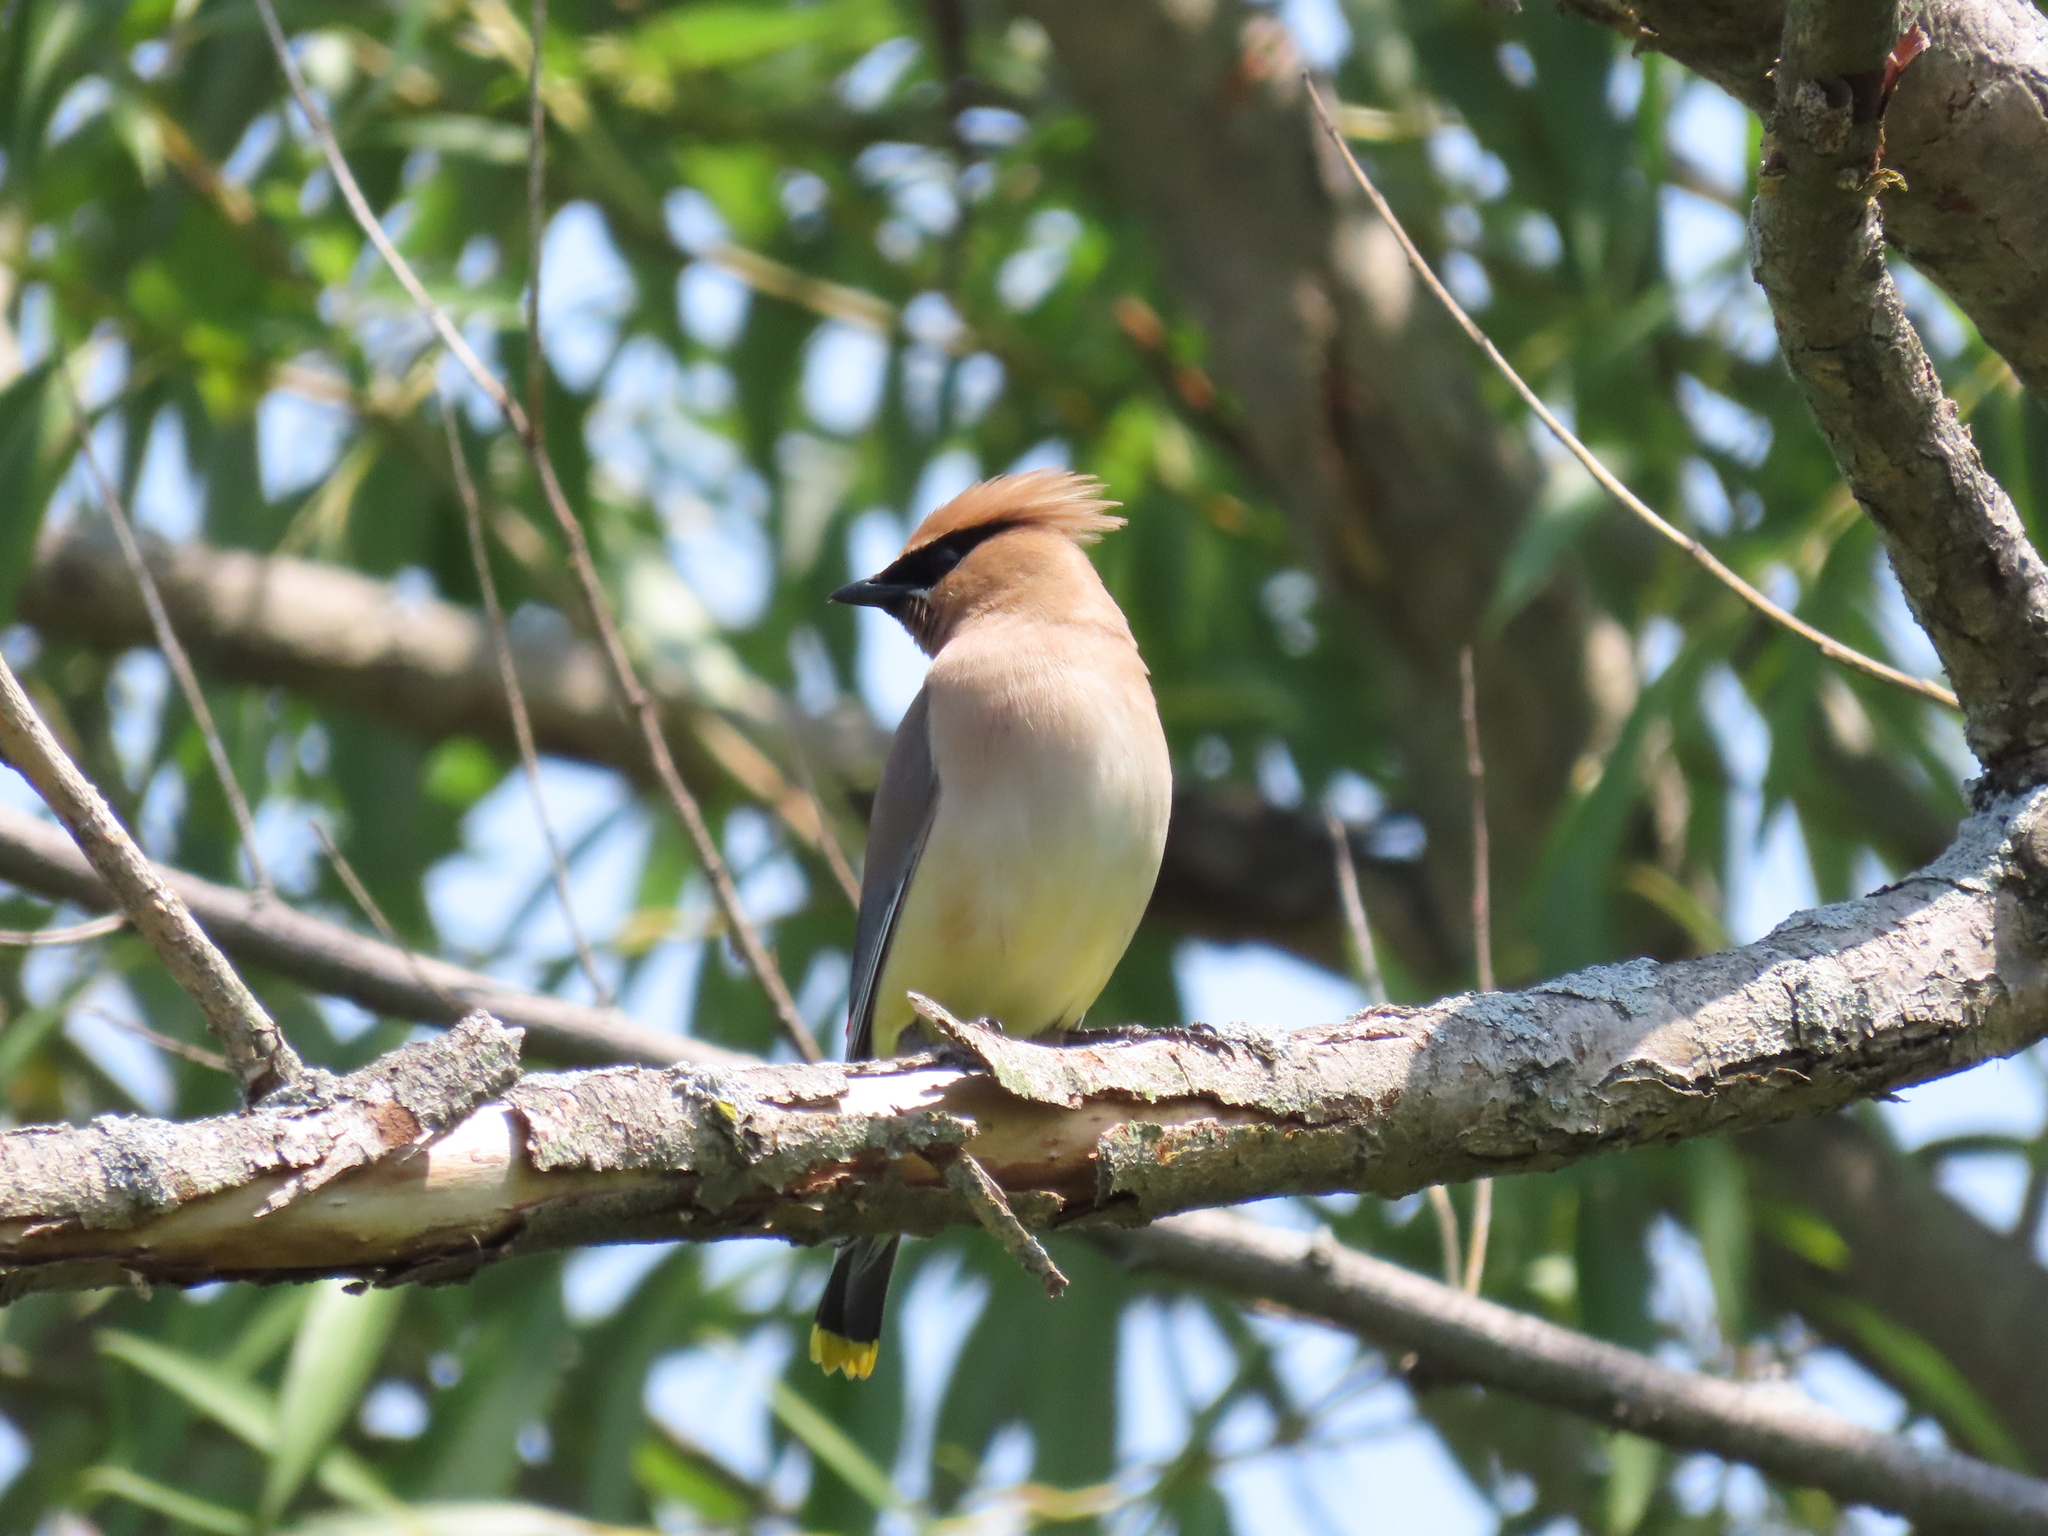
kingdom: Animalia
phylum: Chordata
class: Aves
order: Passeriformes
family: Bombycillidae
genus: Bombycilla
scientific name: Bombycilla cedrorum
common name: Cedar waxwing
